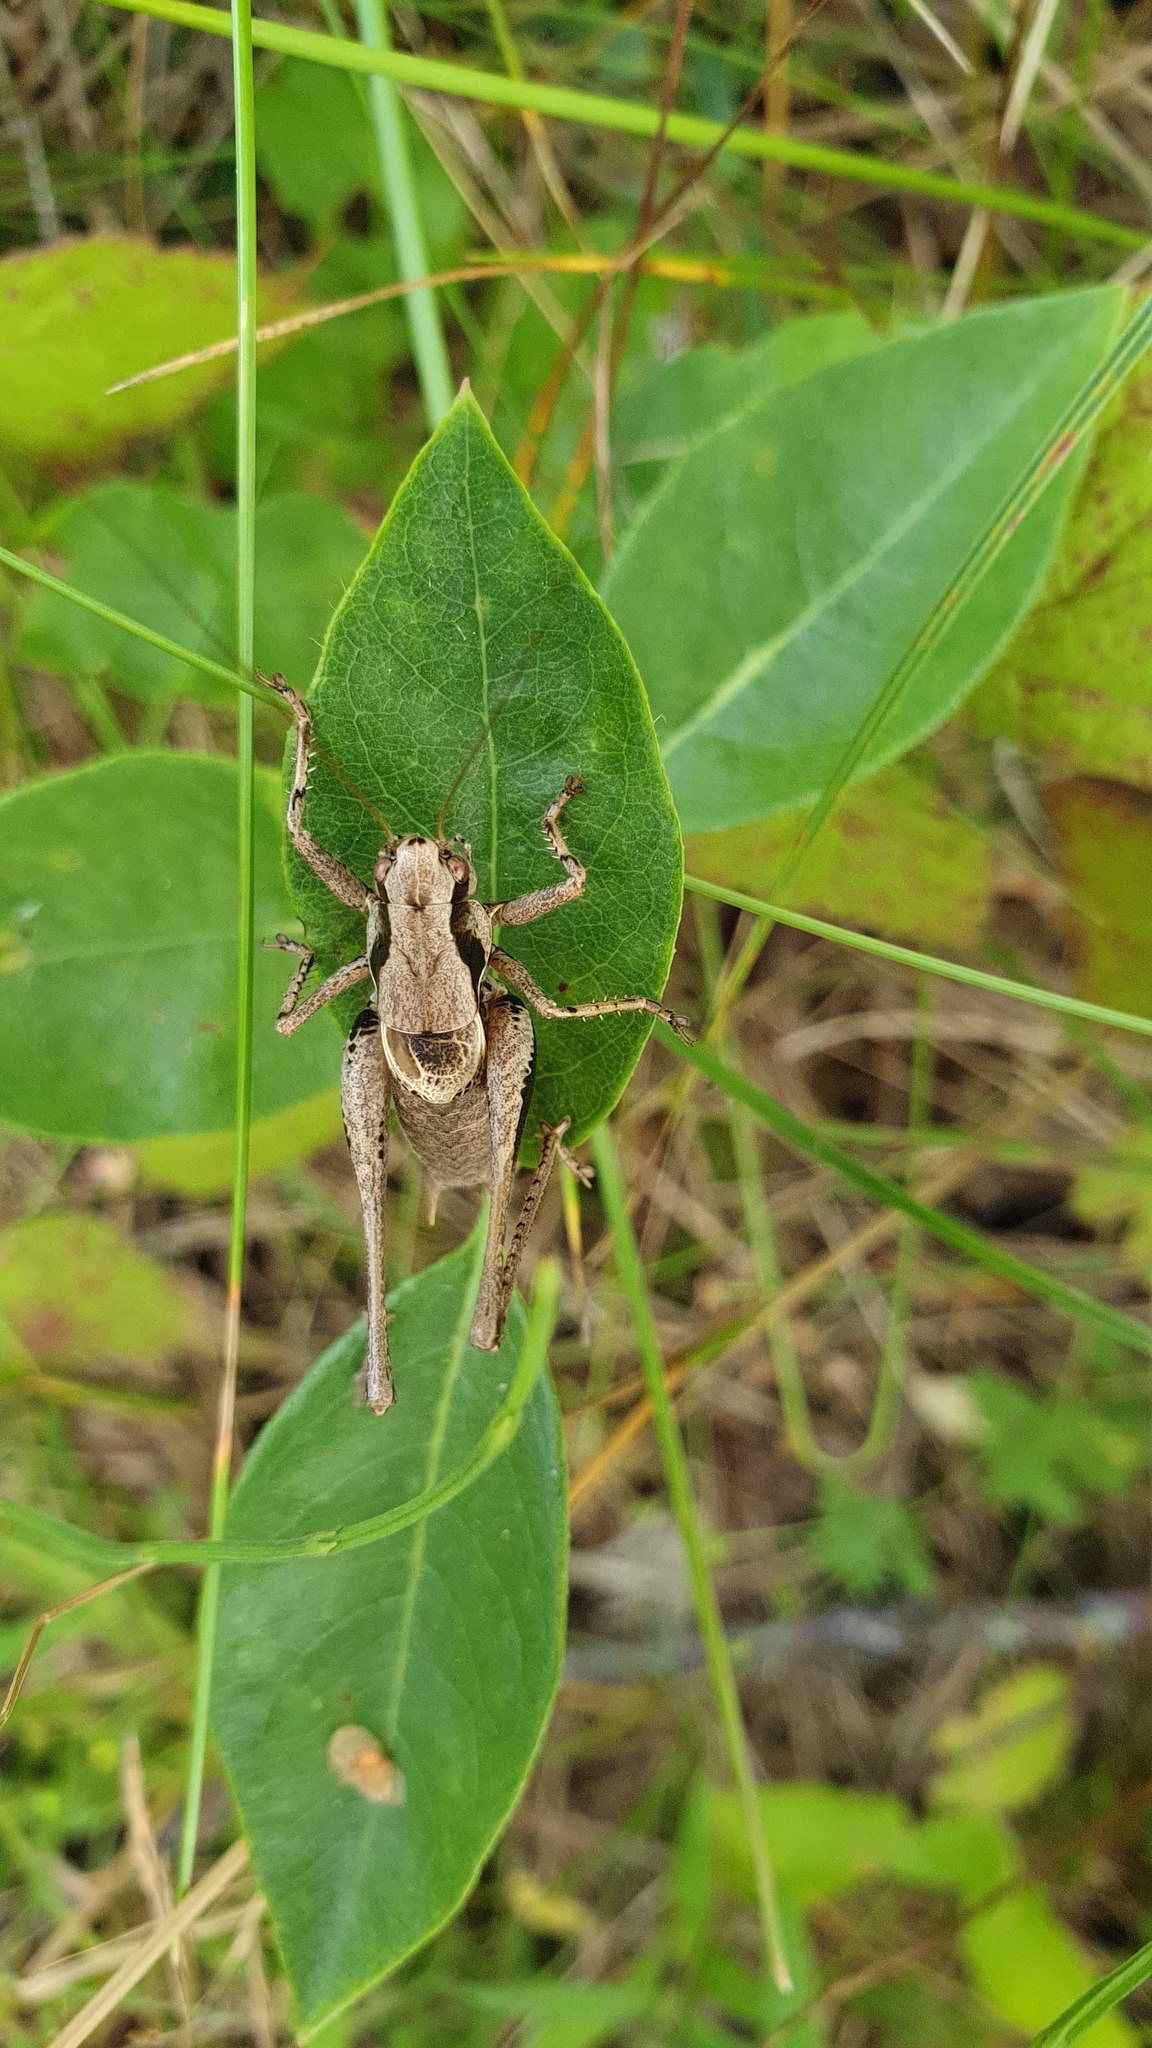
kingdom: Animalia
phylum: Arthropoda
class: Insecta
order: Orthoptera
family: Tettigoniidae
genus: Pholidoptera
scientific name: Pholidoptera griseoaptera
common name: Dark bush-cricket
